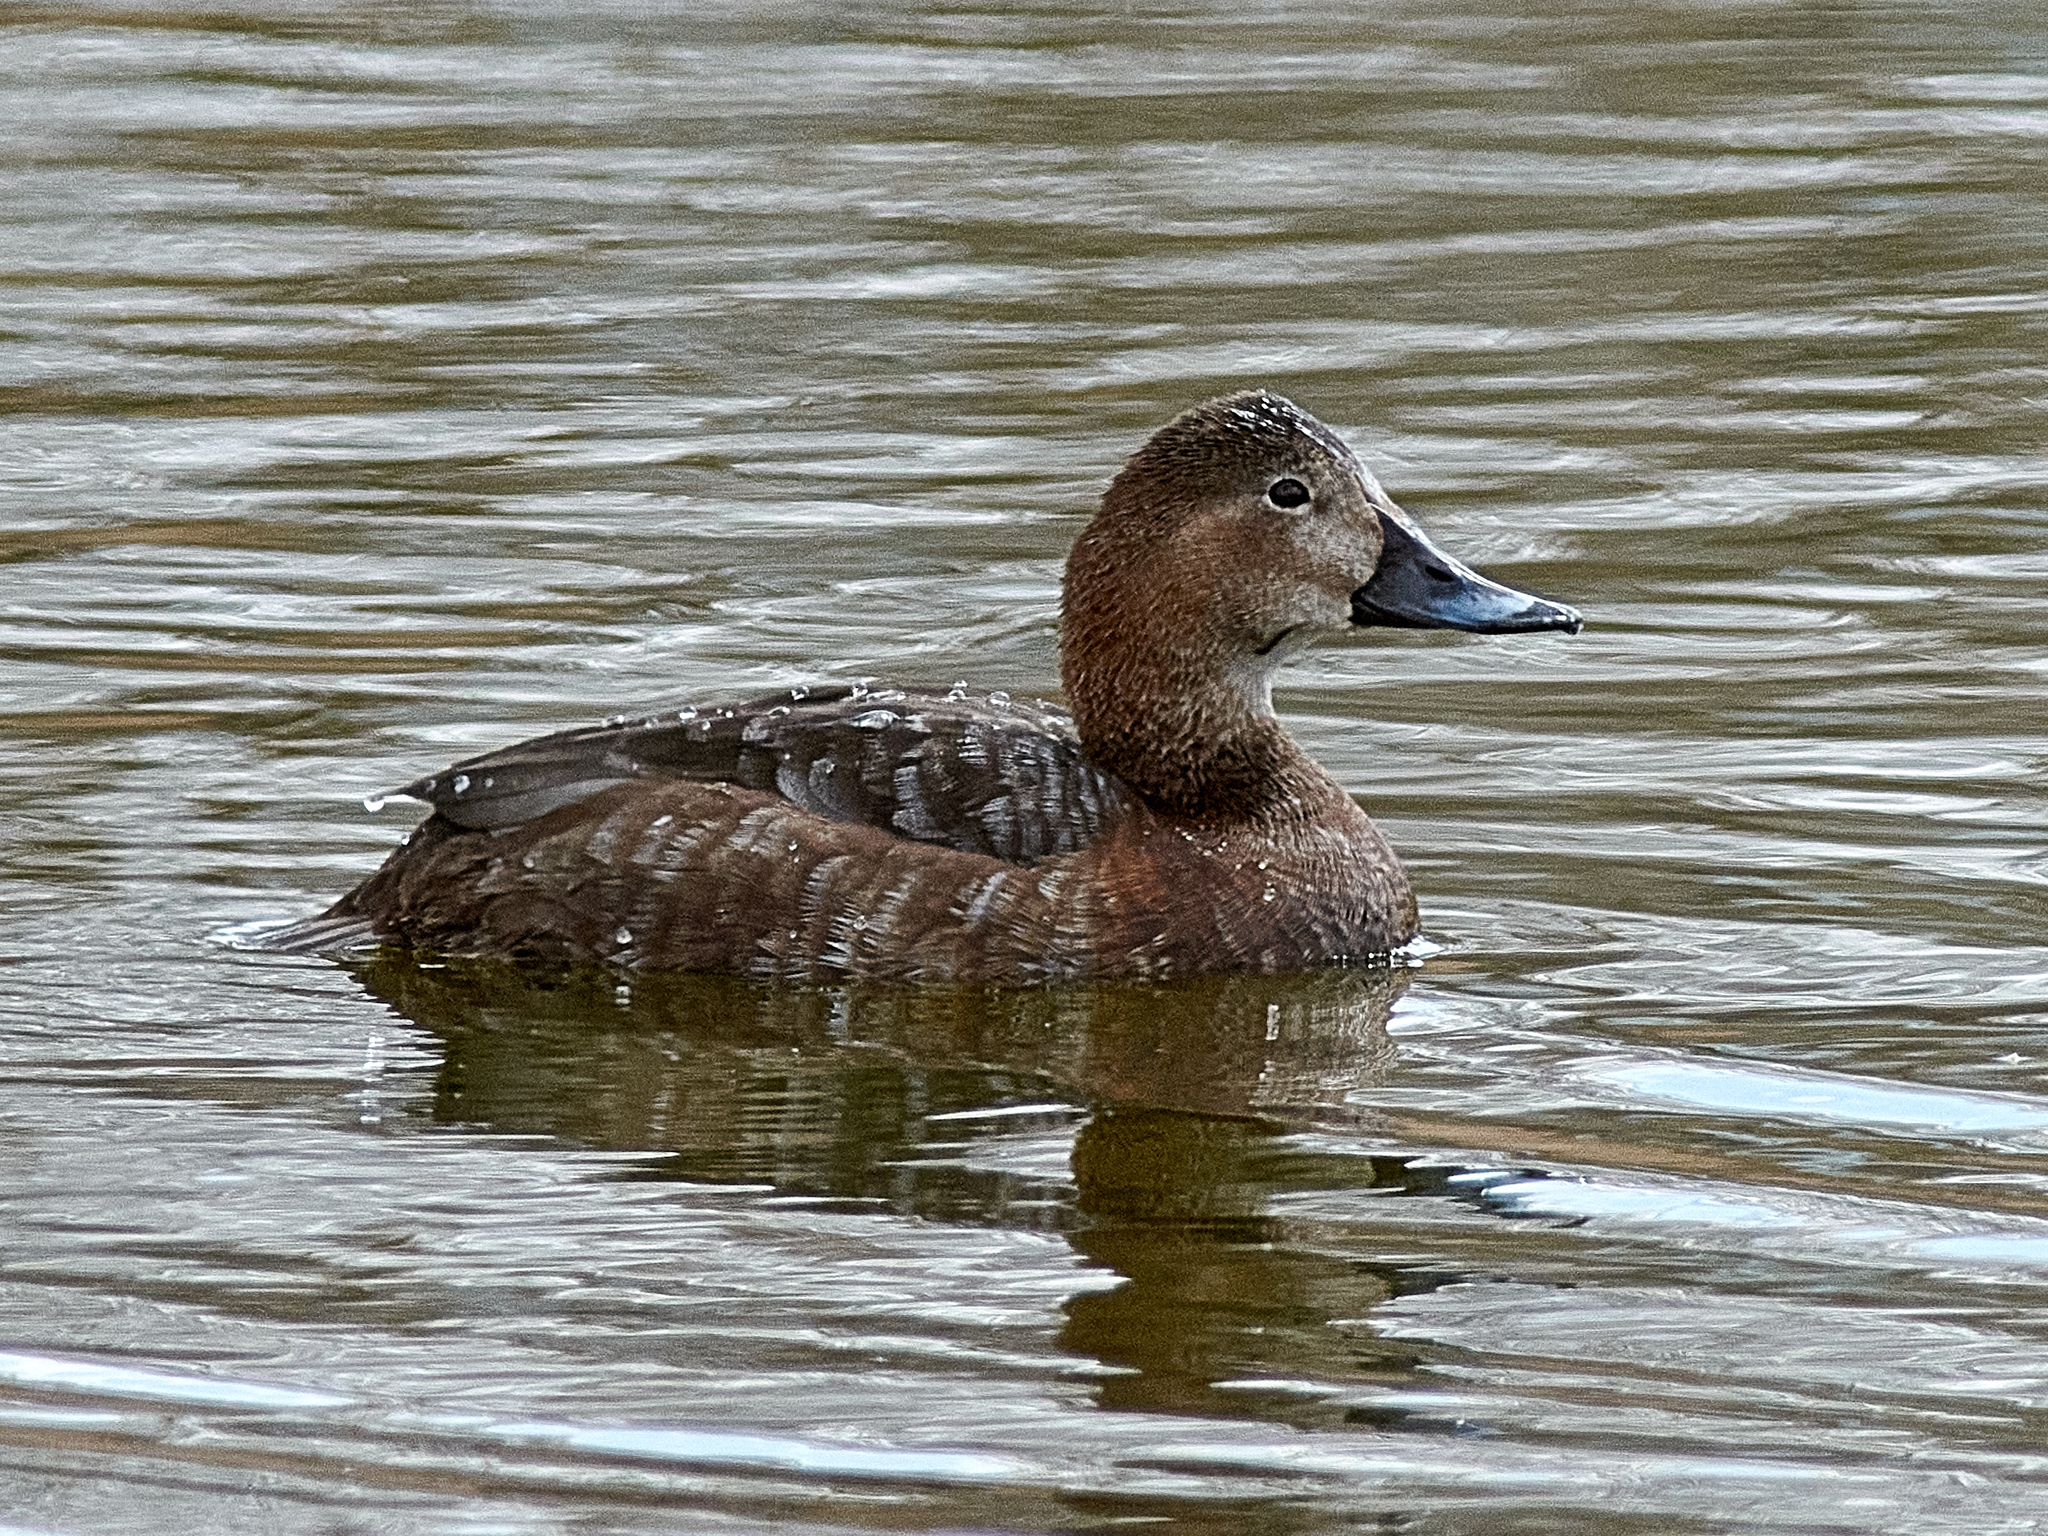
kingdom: Animalia
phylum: Chordata
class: Aves
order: Anseriformes
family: Anatidae
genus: Aythya
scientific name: Aythya ferina
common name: Common pochard
